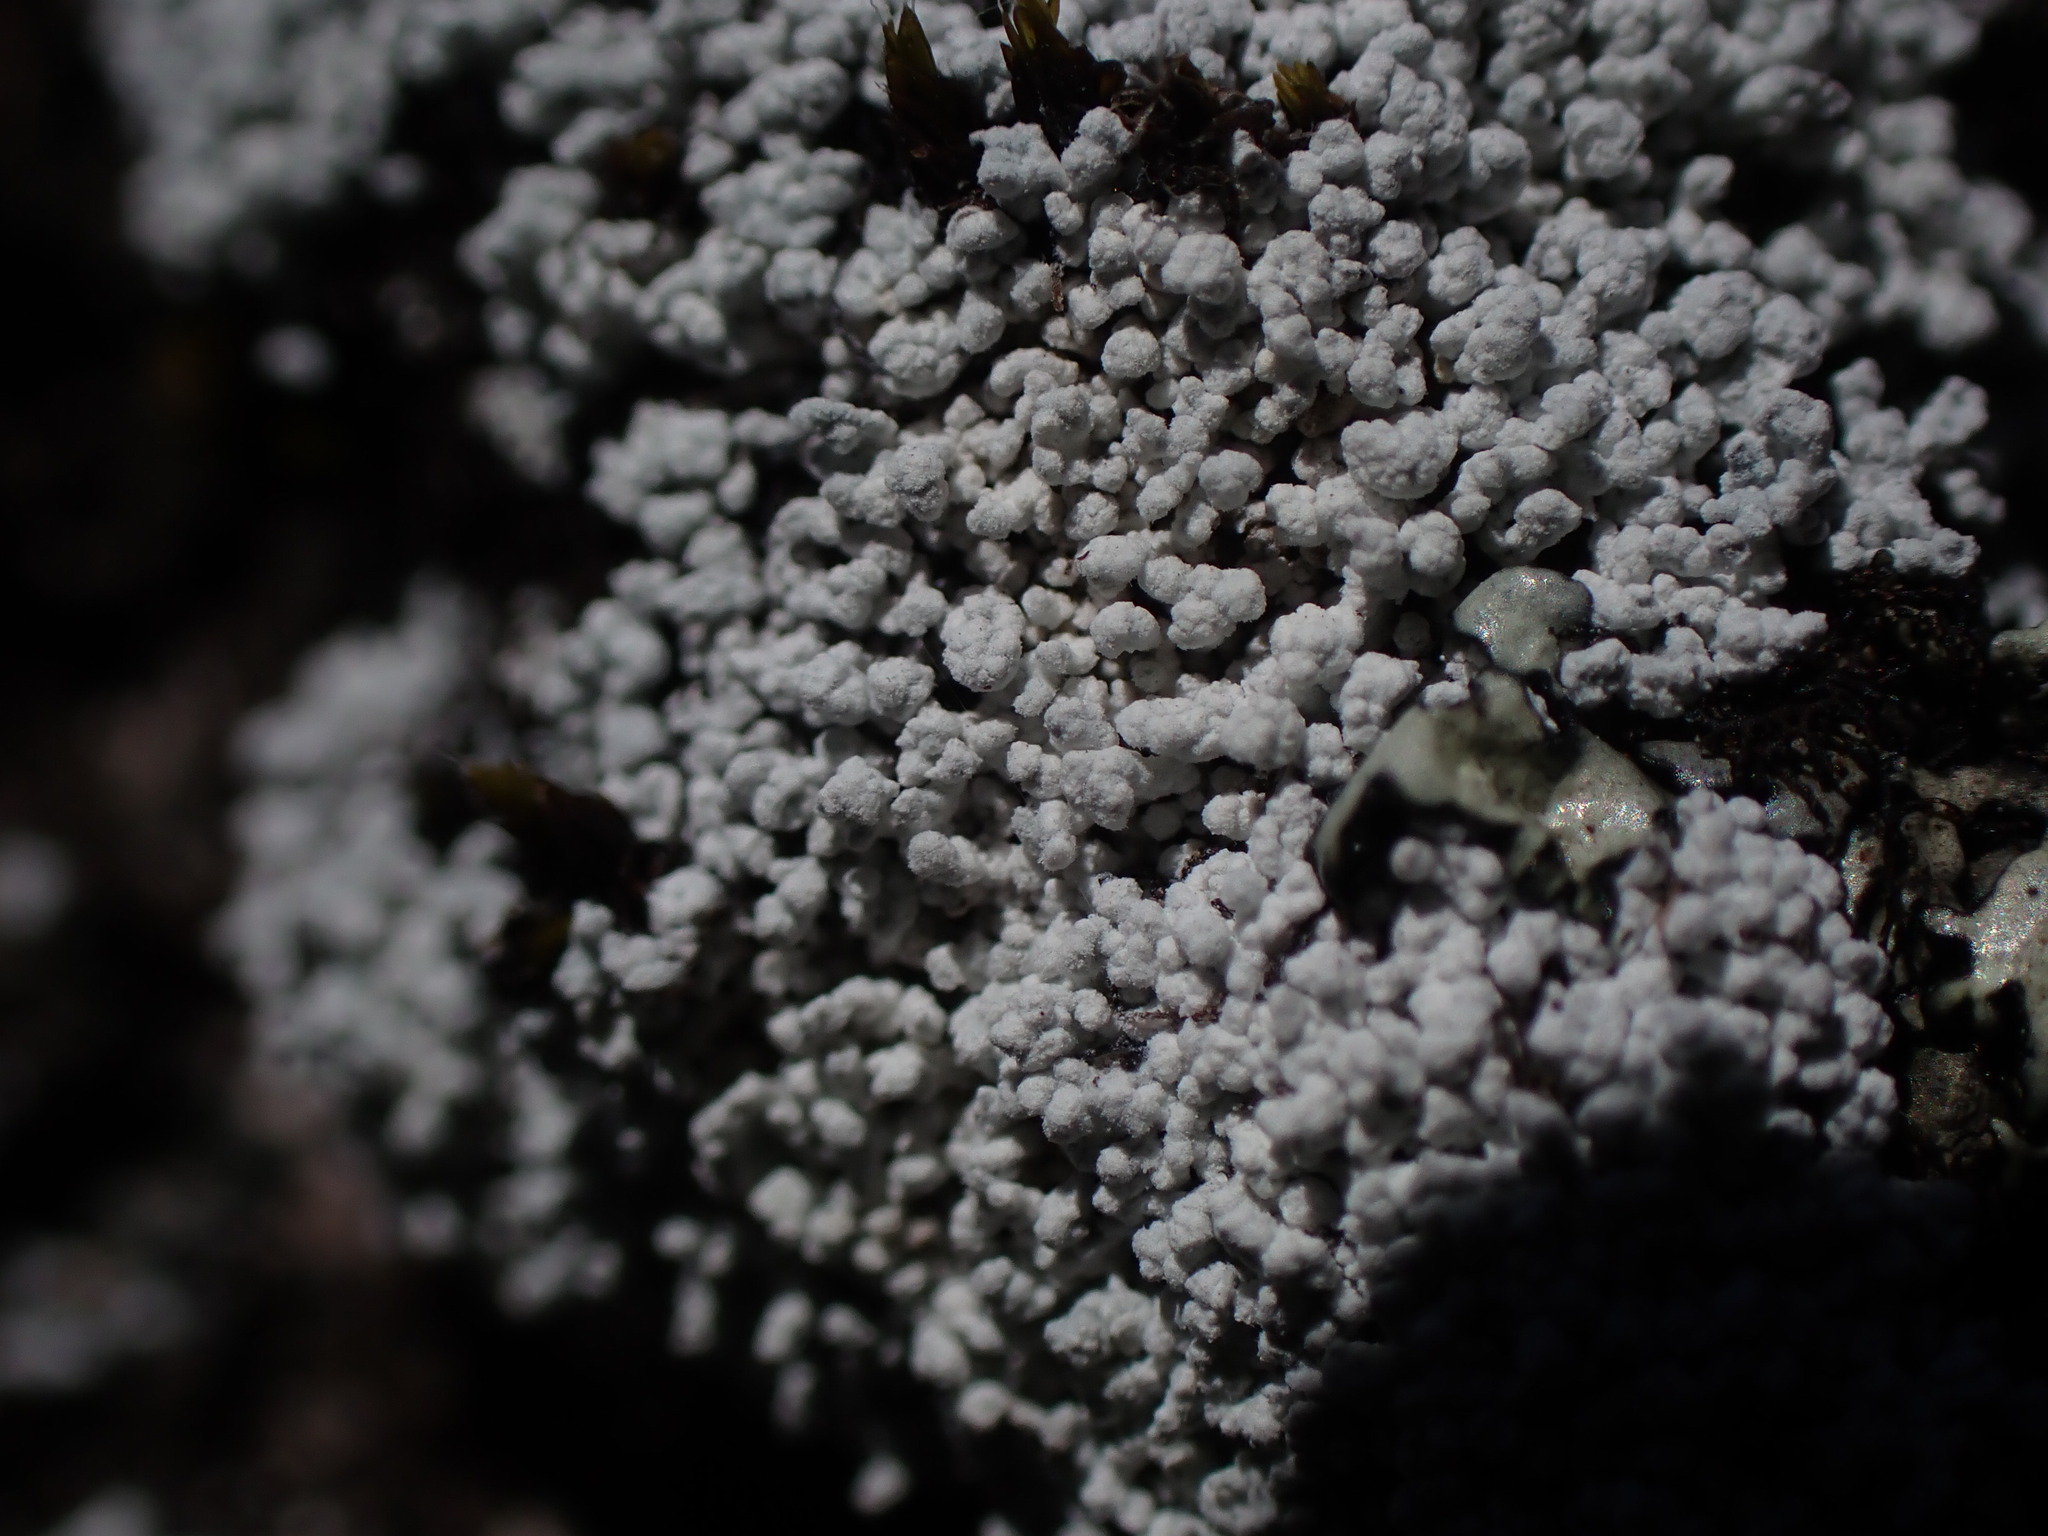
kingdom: Fungi
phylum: Ascomycota
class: Lecanoromycetes
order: Lecanorales
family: Stereocaulaceae
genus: Lepraria
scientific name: Lepraria subalbicans
